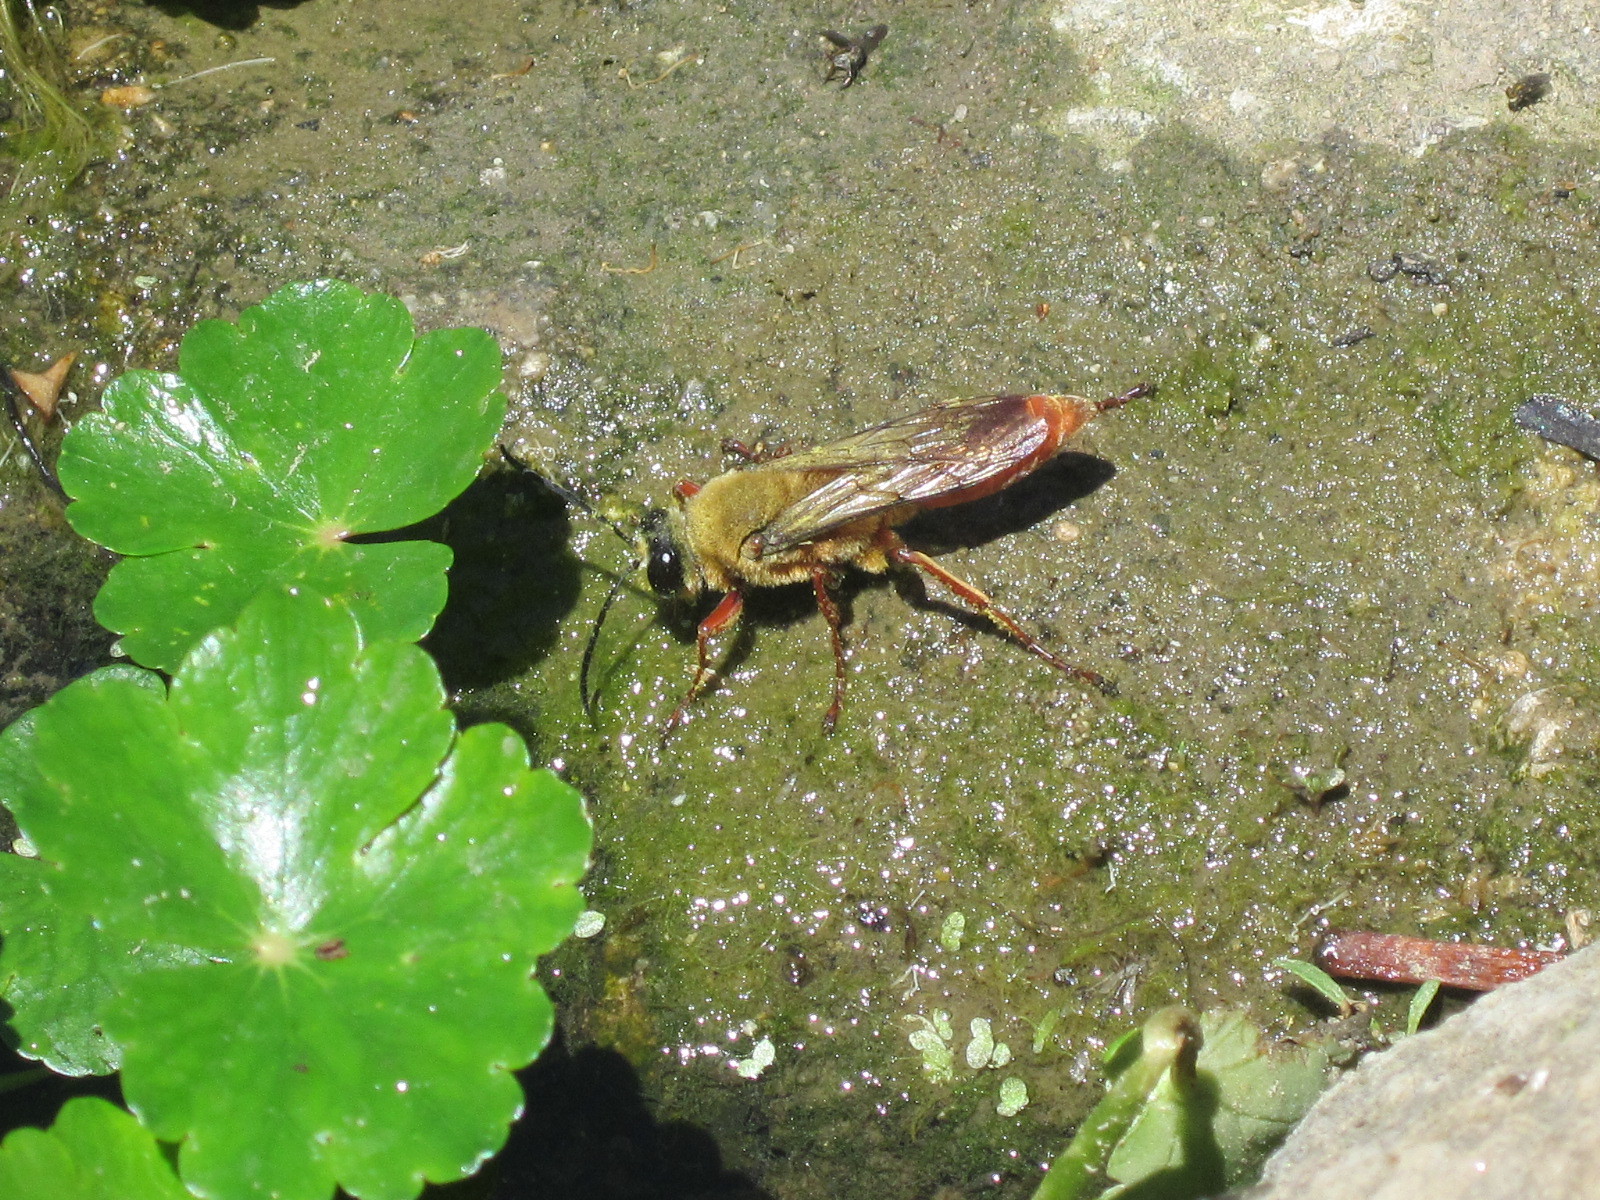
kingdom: Animalia
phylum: Arthropoda
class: Insecta
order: Hymenoptera
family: Sphecidae
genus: Sphex
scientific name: Sphex latreillei
